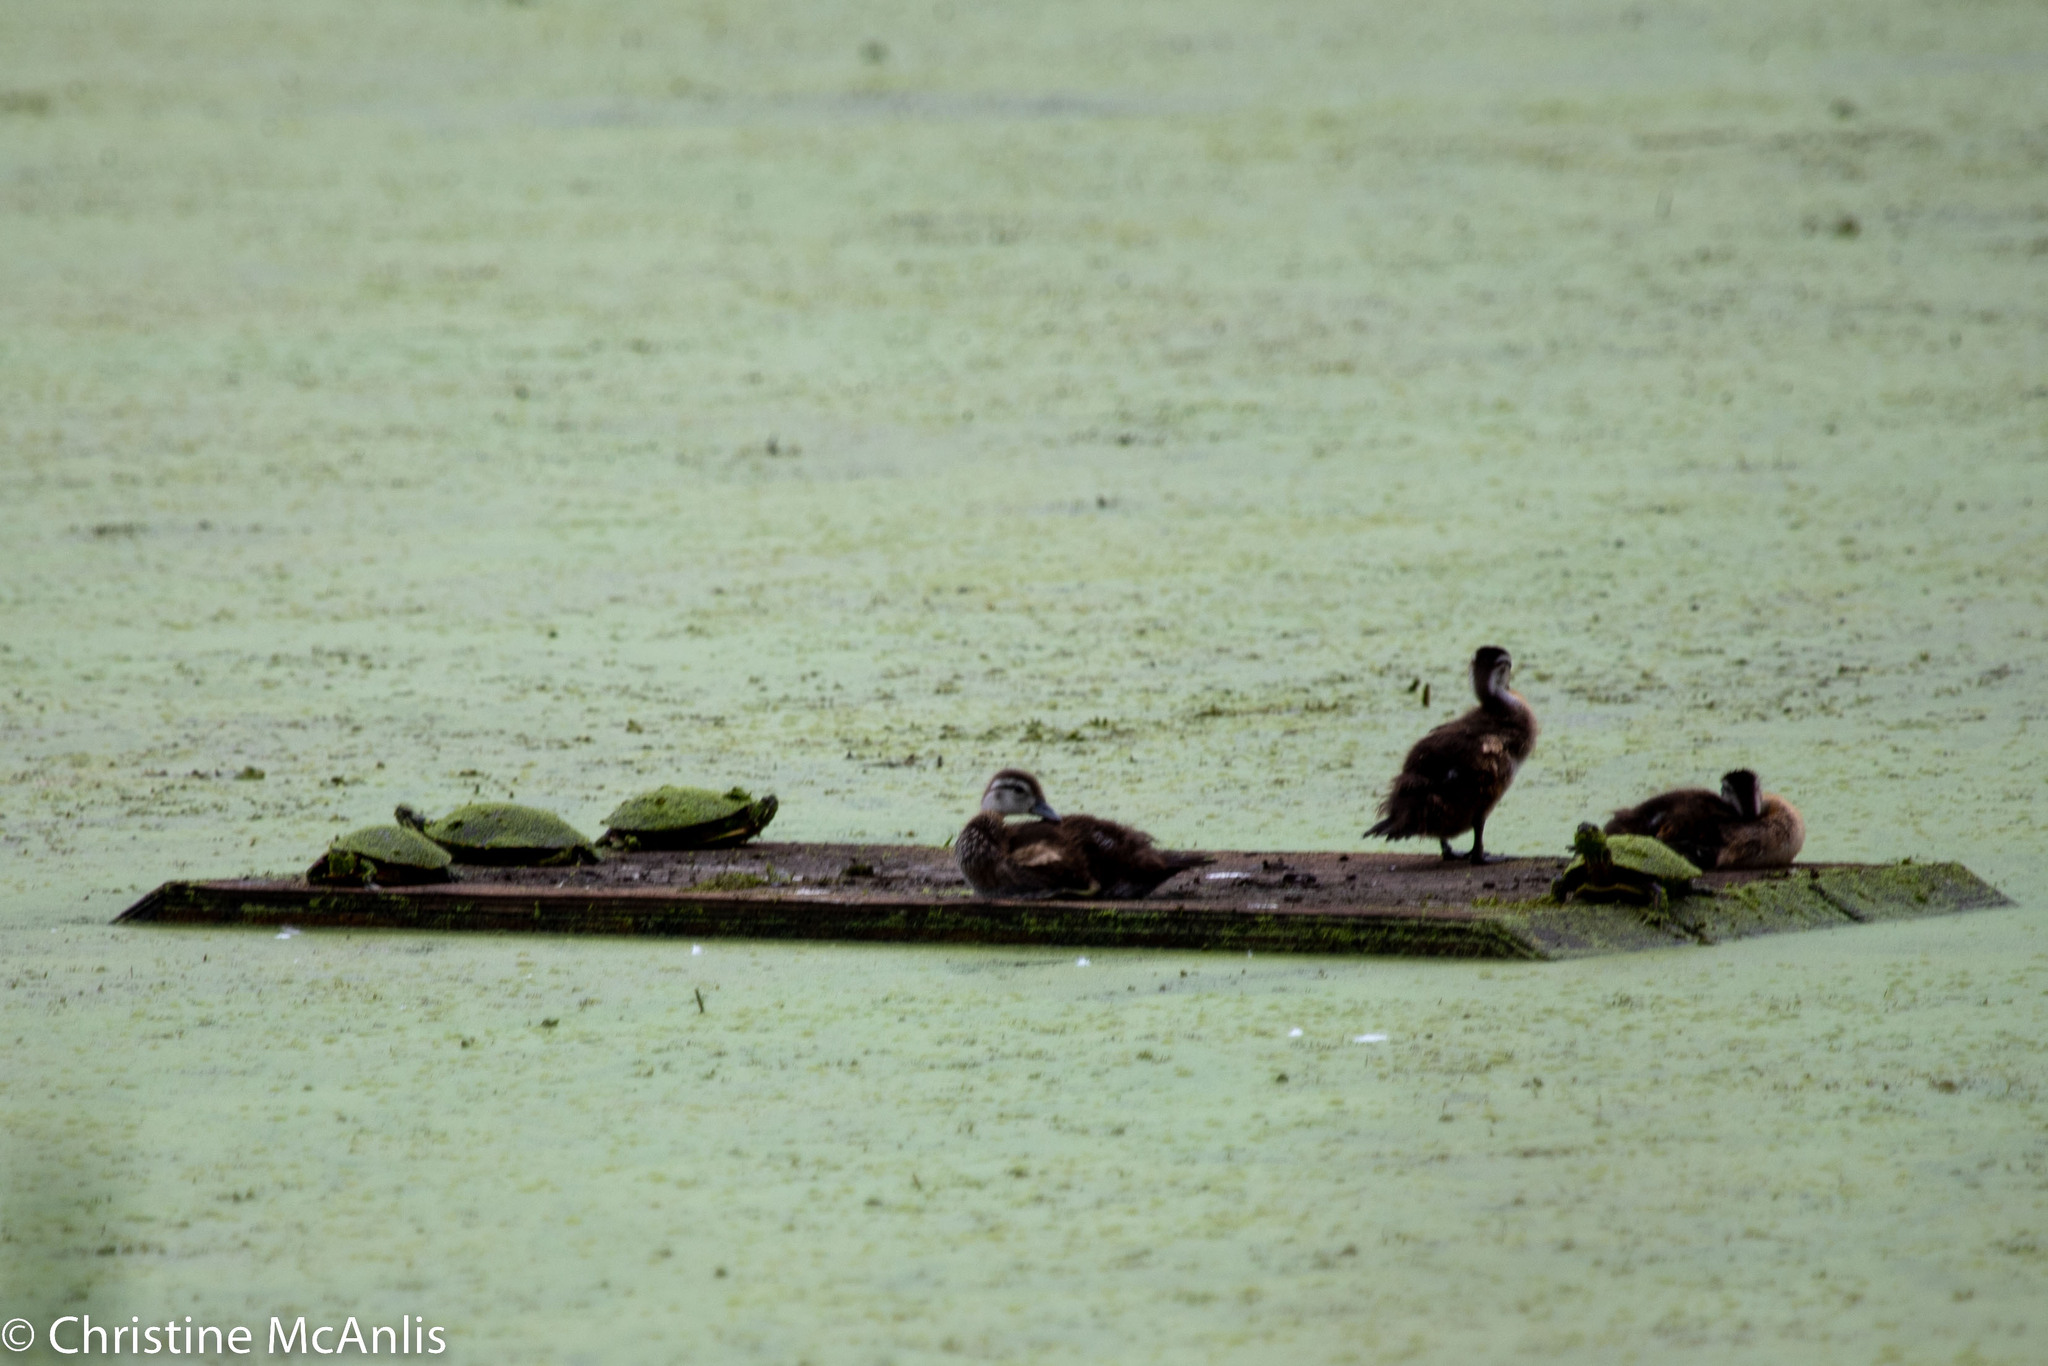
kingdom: Animalia
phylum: Chordata
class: Aves
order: Anseriformes
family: Anatidae
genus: Aix
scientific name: Aix sponsa
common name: Wood duck
